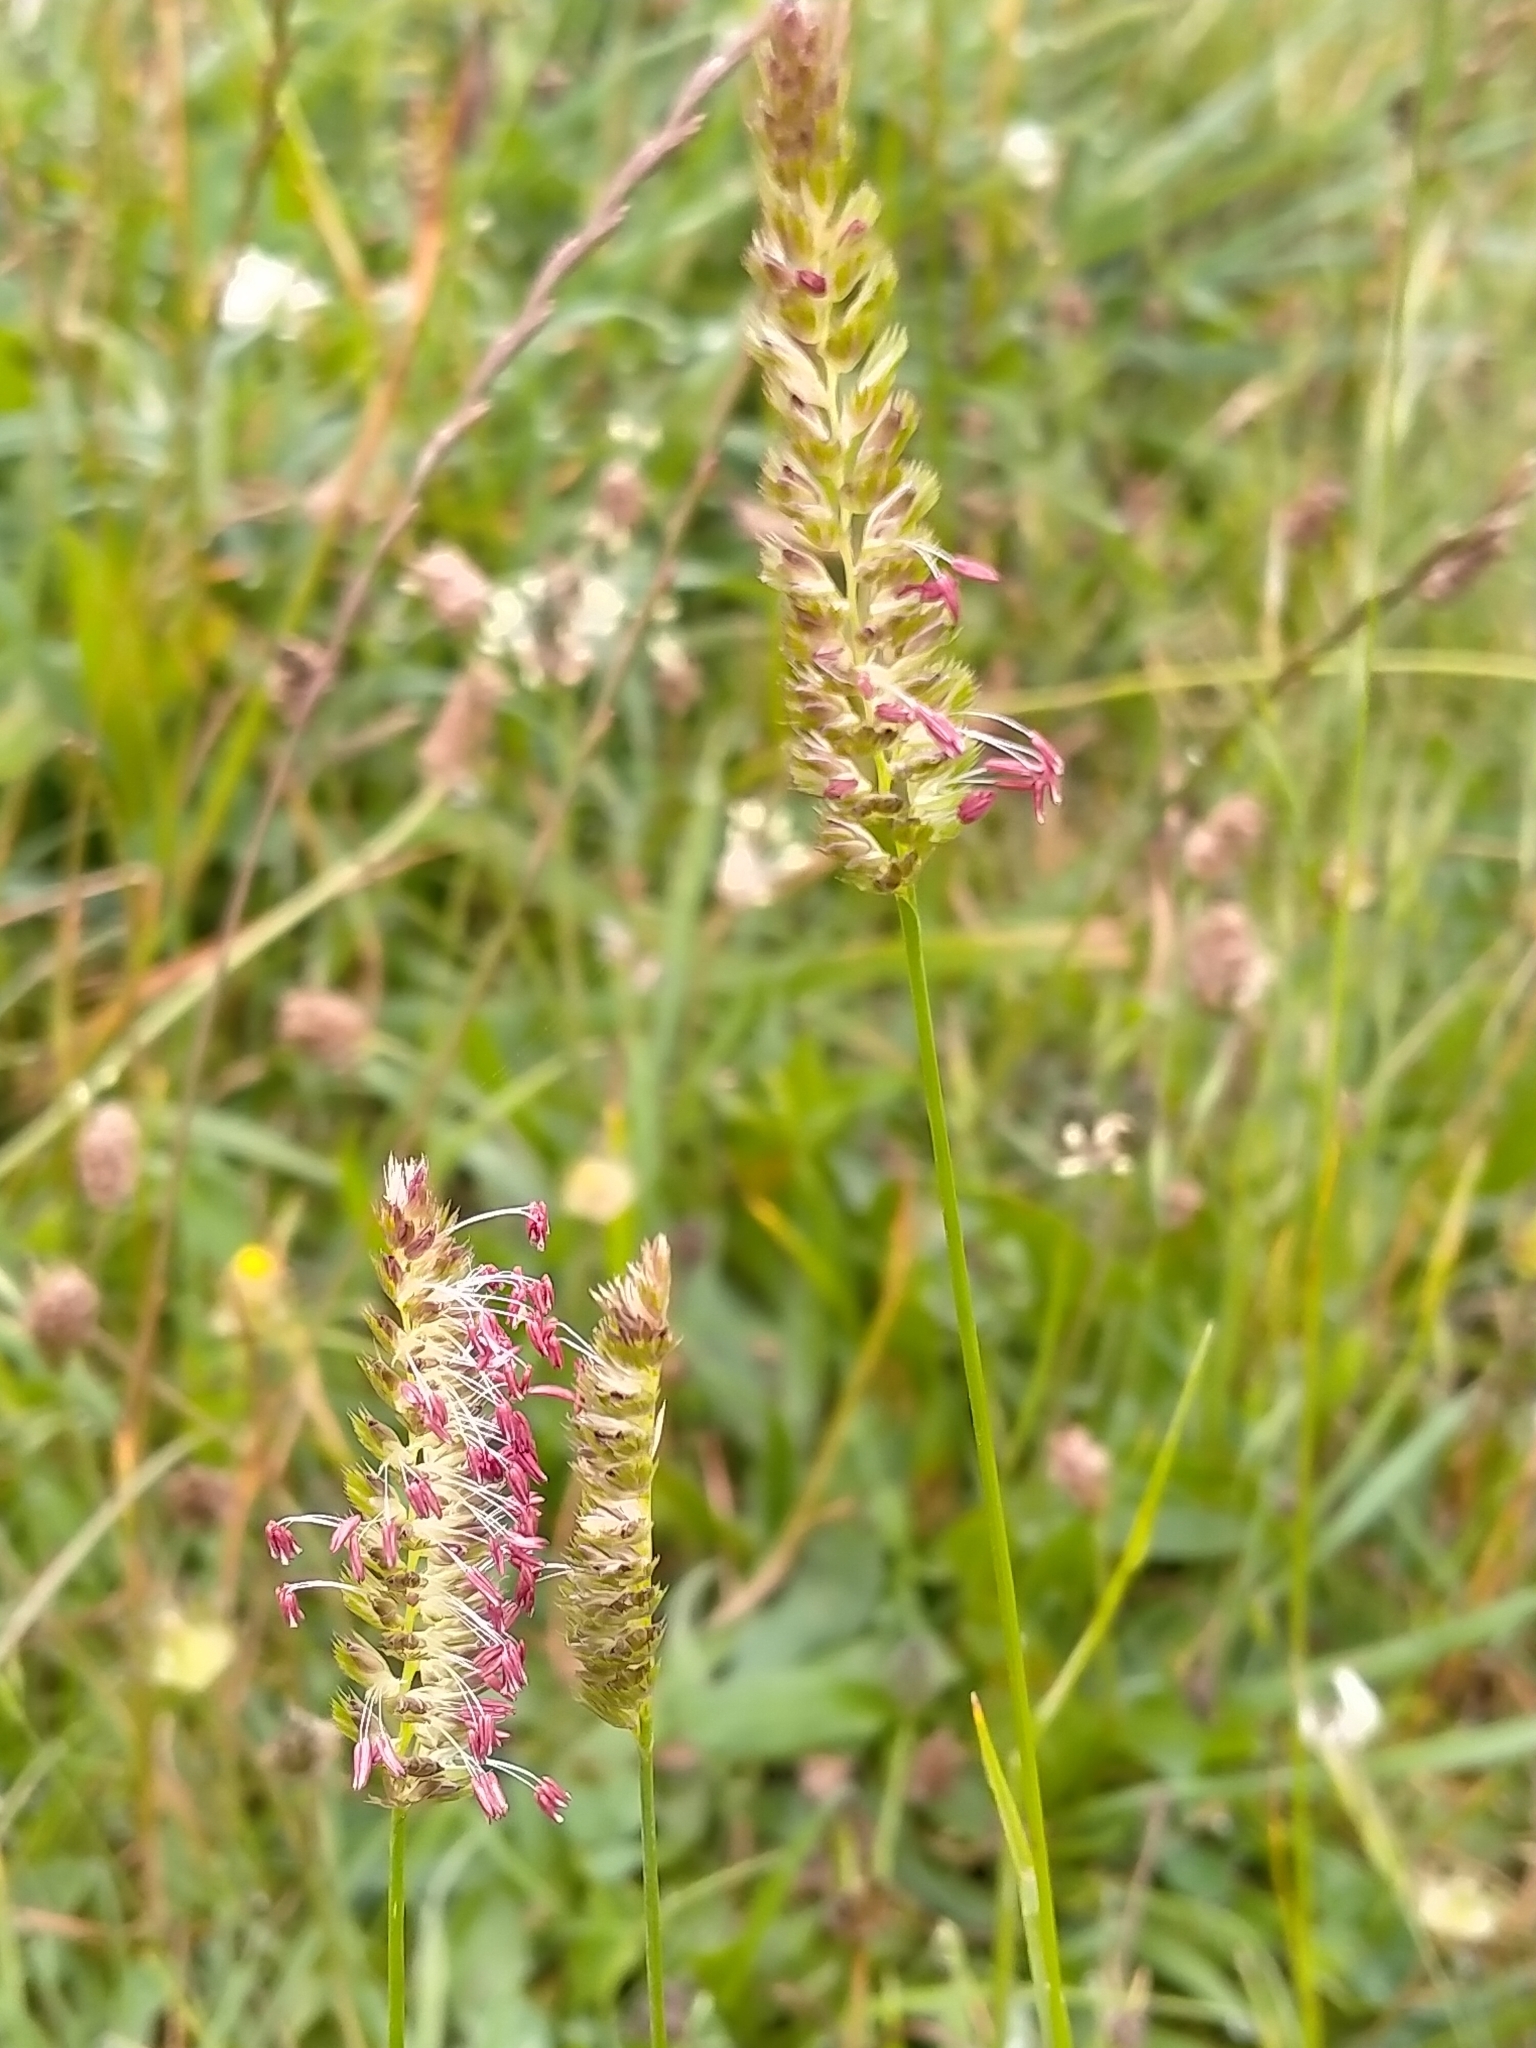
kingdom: Plantae
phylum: Tracheophyta
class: Liliopsida
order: Poales
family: Poaceae
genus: Cynosurus
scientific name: Cynosurus cristatus
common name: Crested dog's-tail
